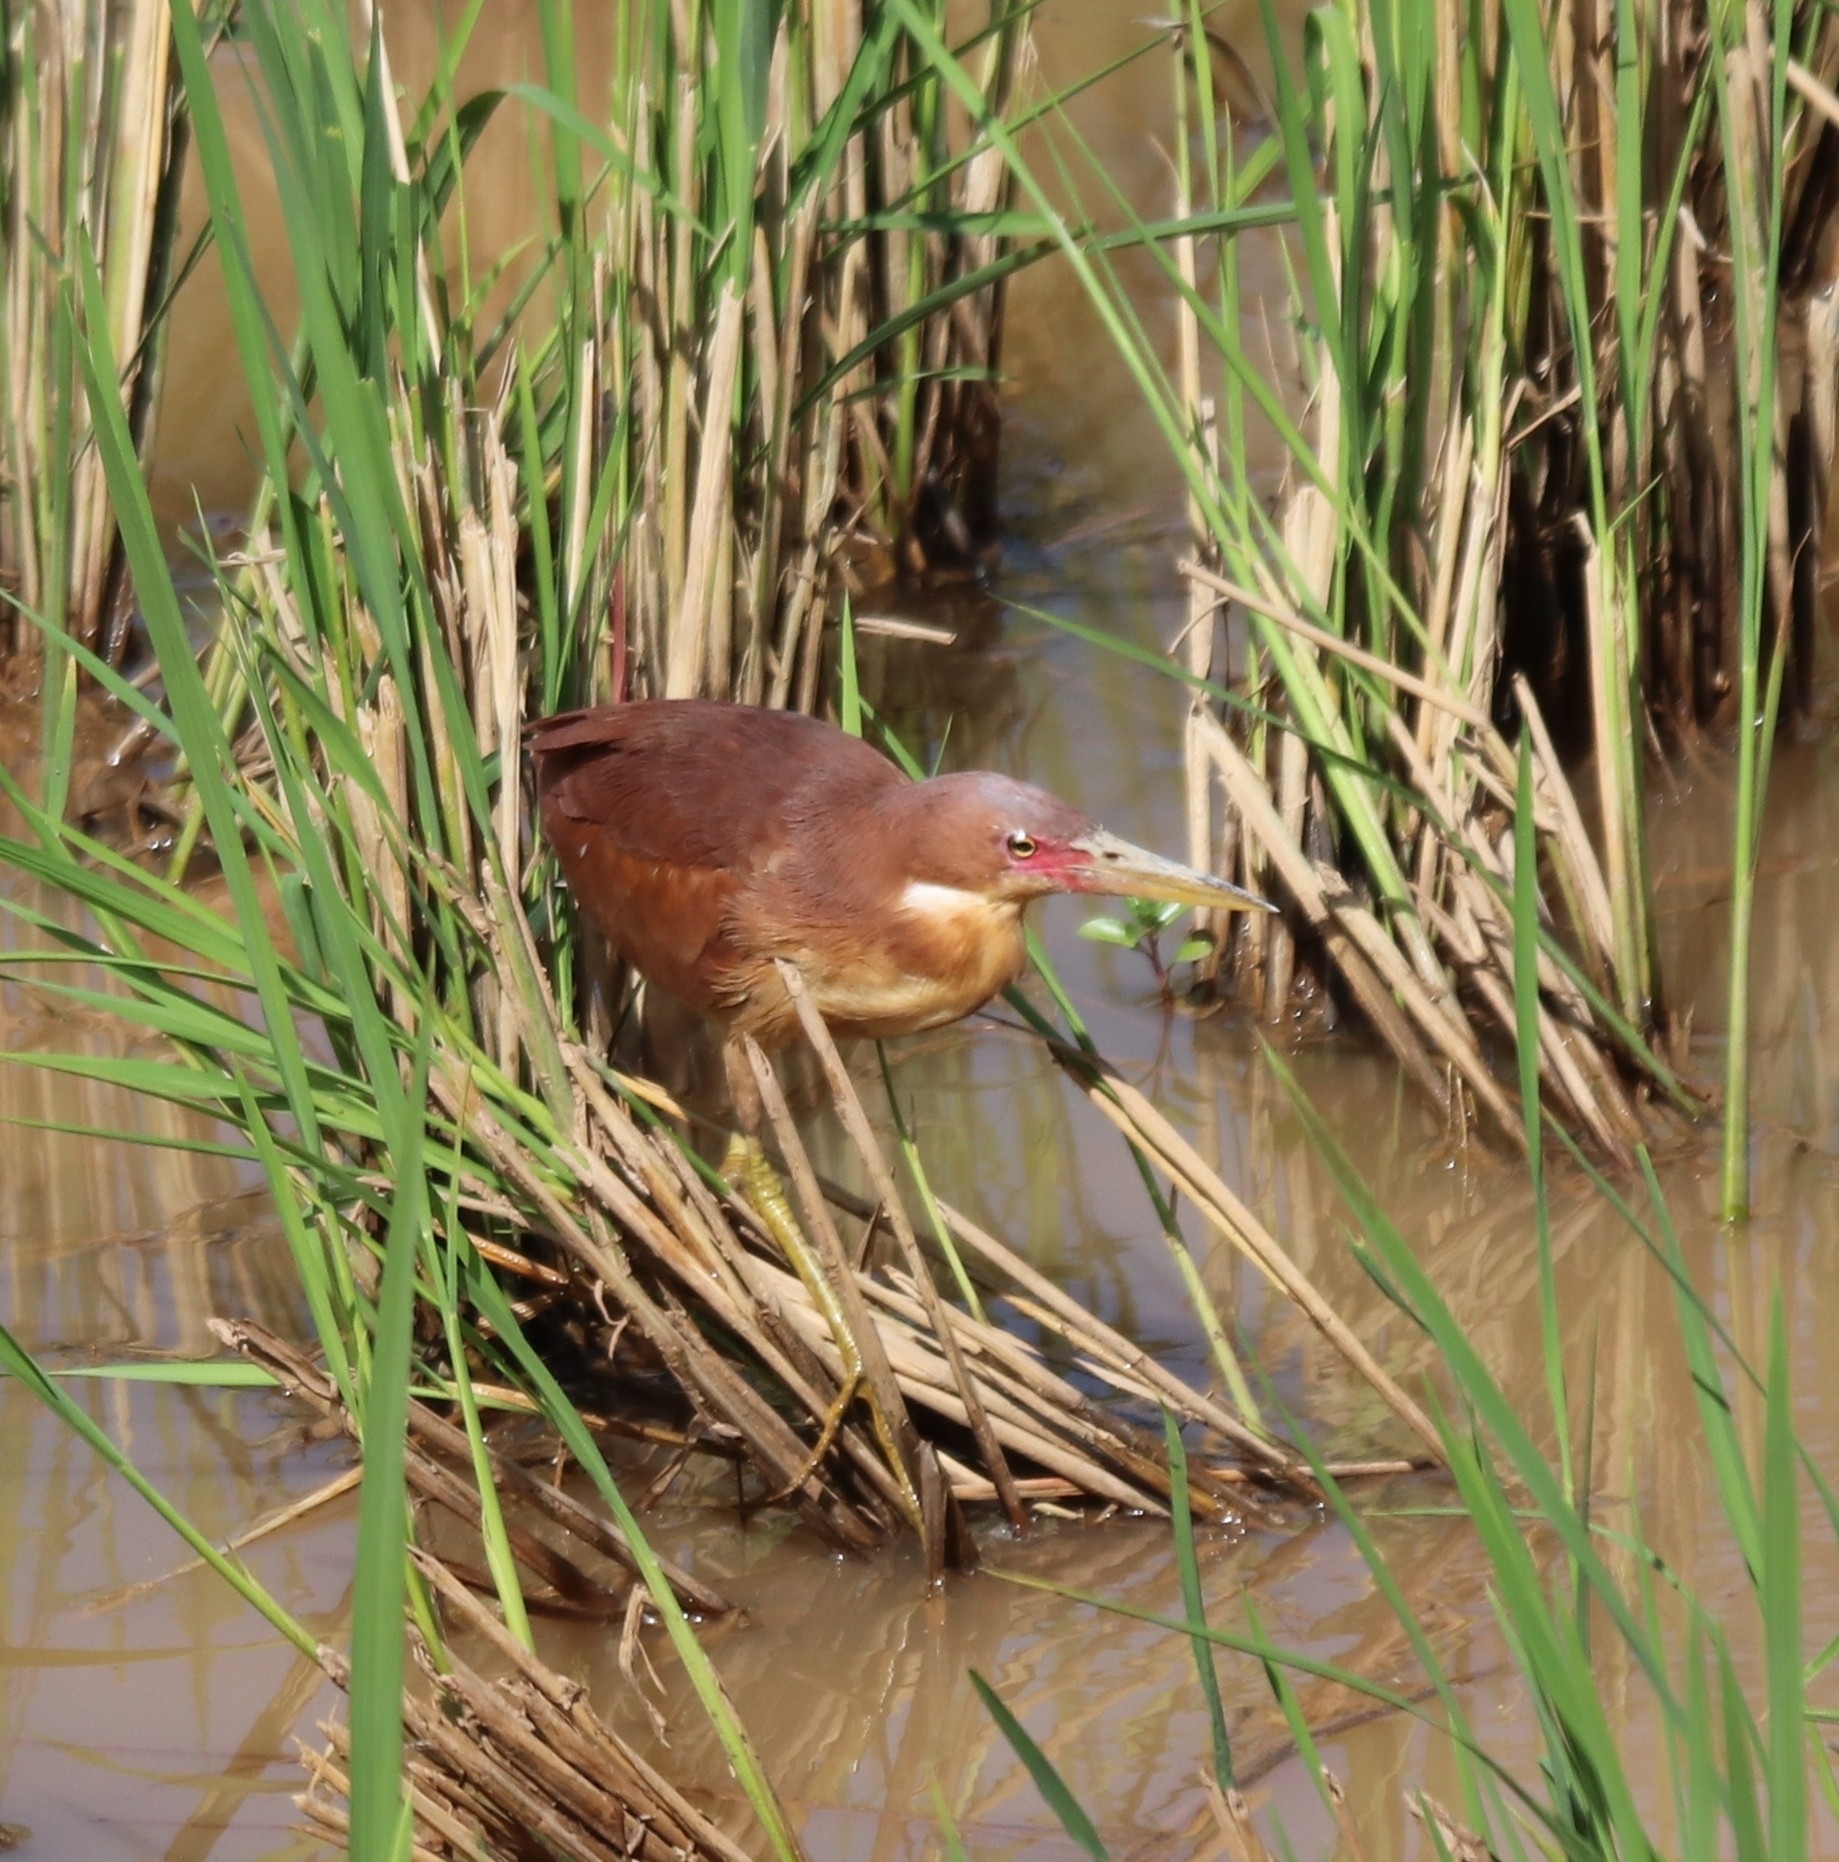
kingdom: Animalia
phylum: Chordata
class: Aves
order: Pelecaniformes
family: Ardeidae
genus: Ixobrychus
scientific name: Ixobrychus cinnamomeus
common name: Cinnamon bittern
